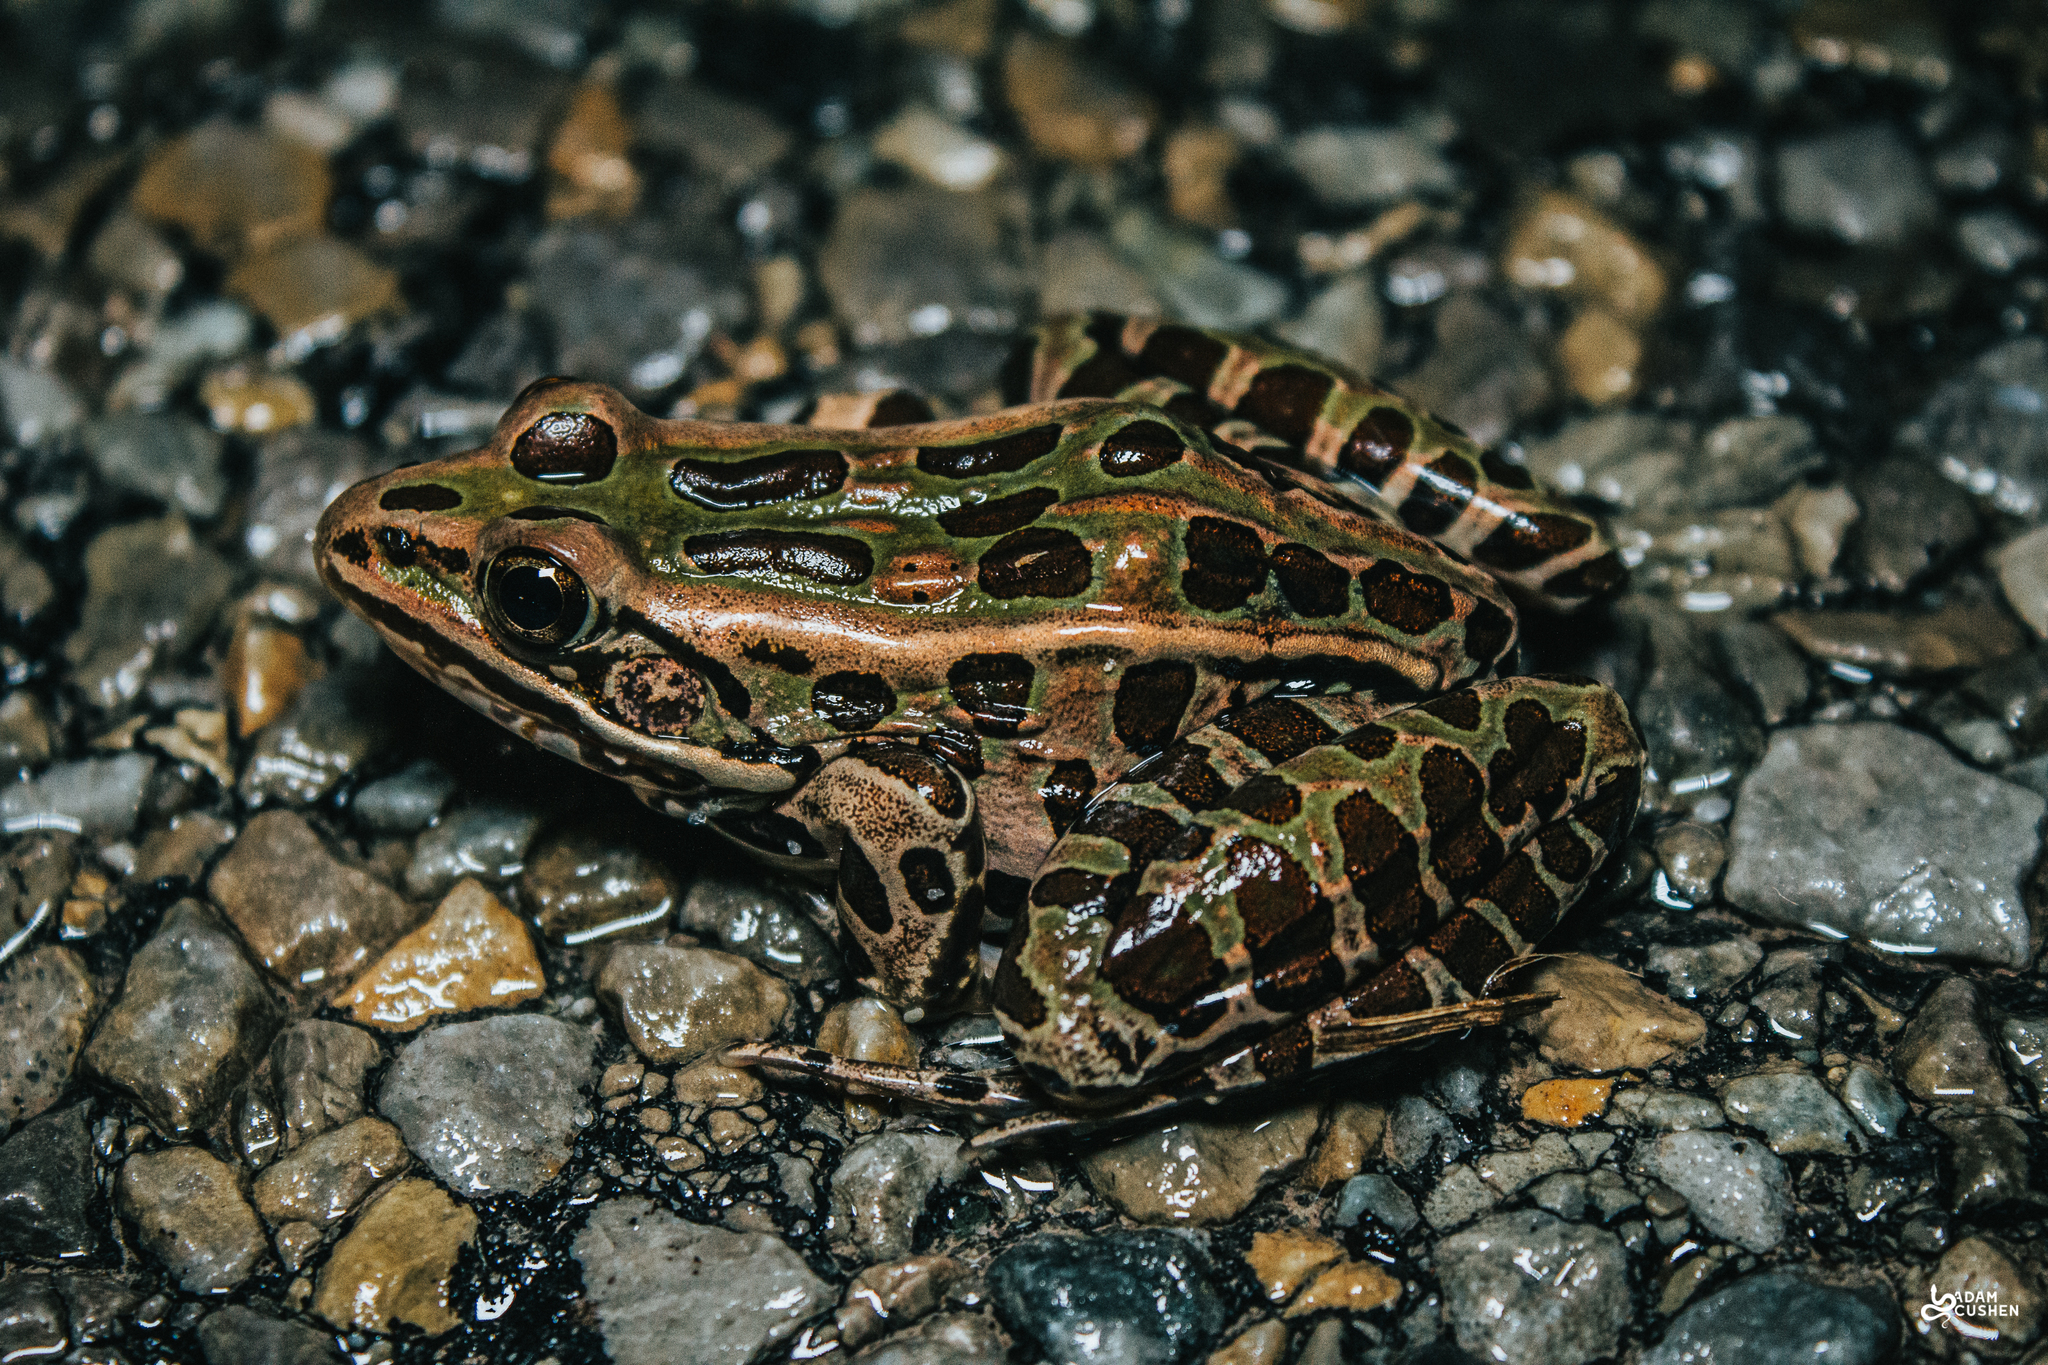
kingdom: Animalia
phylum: Chordata
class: Amphibia
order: Anura
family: Ranidae
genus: Lithobates
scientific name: Lithobates pipiens
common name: Northern leopard frog
